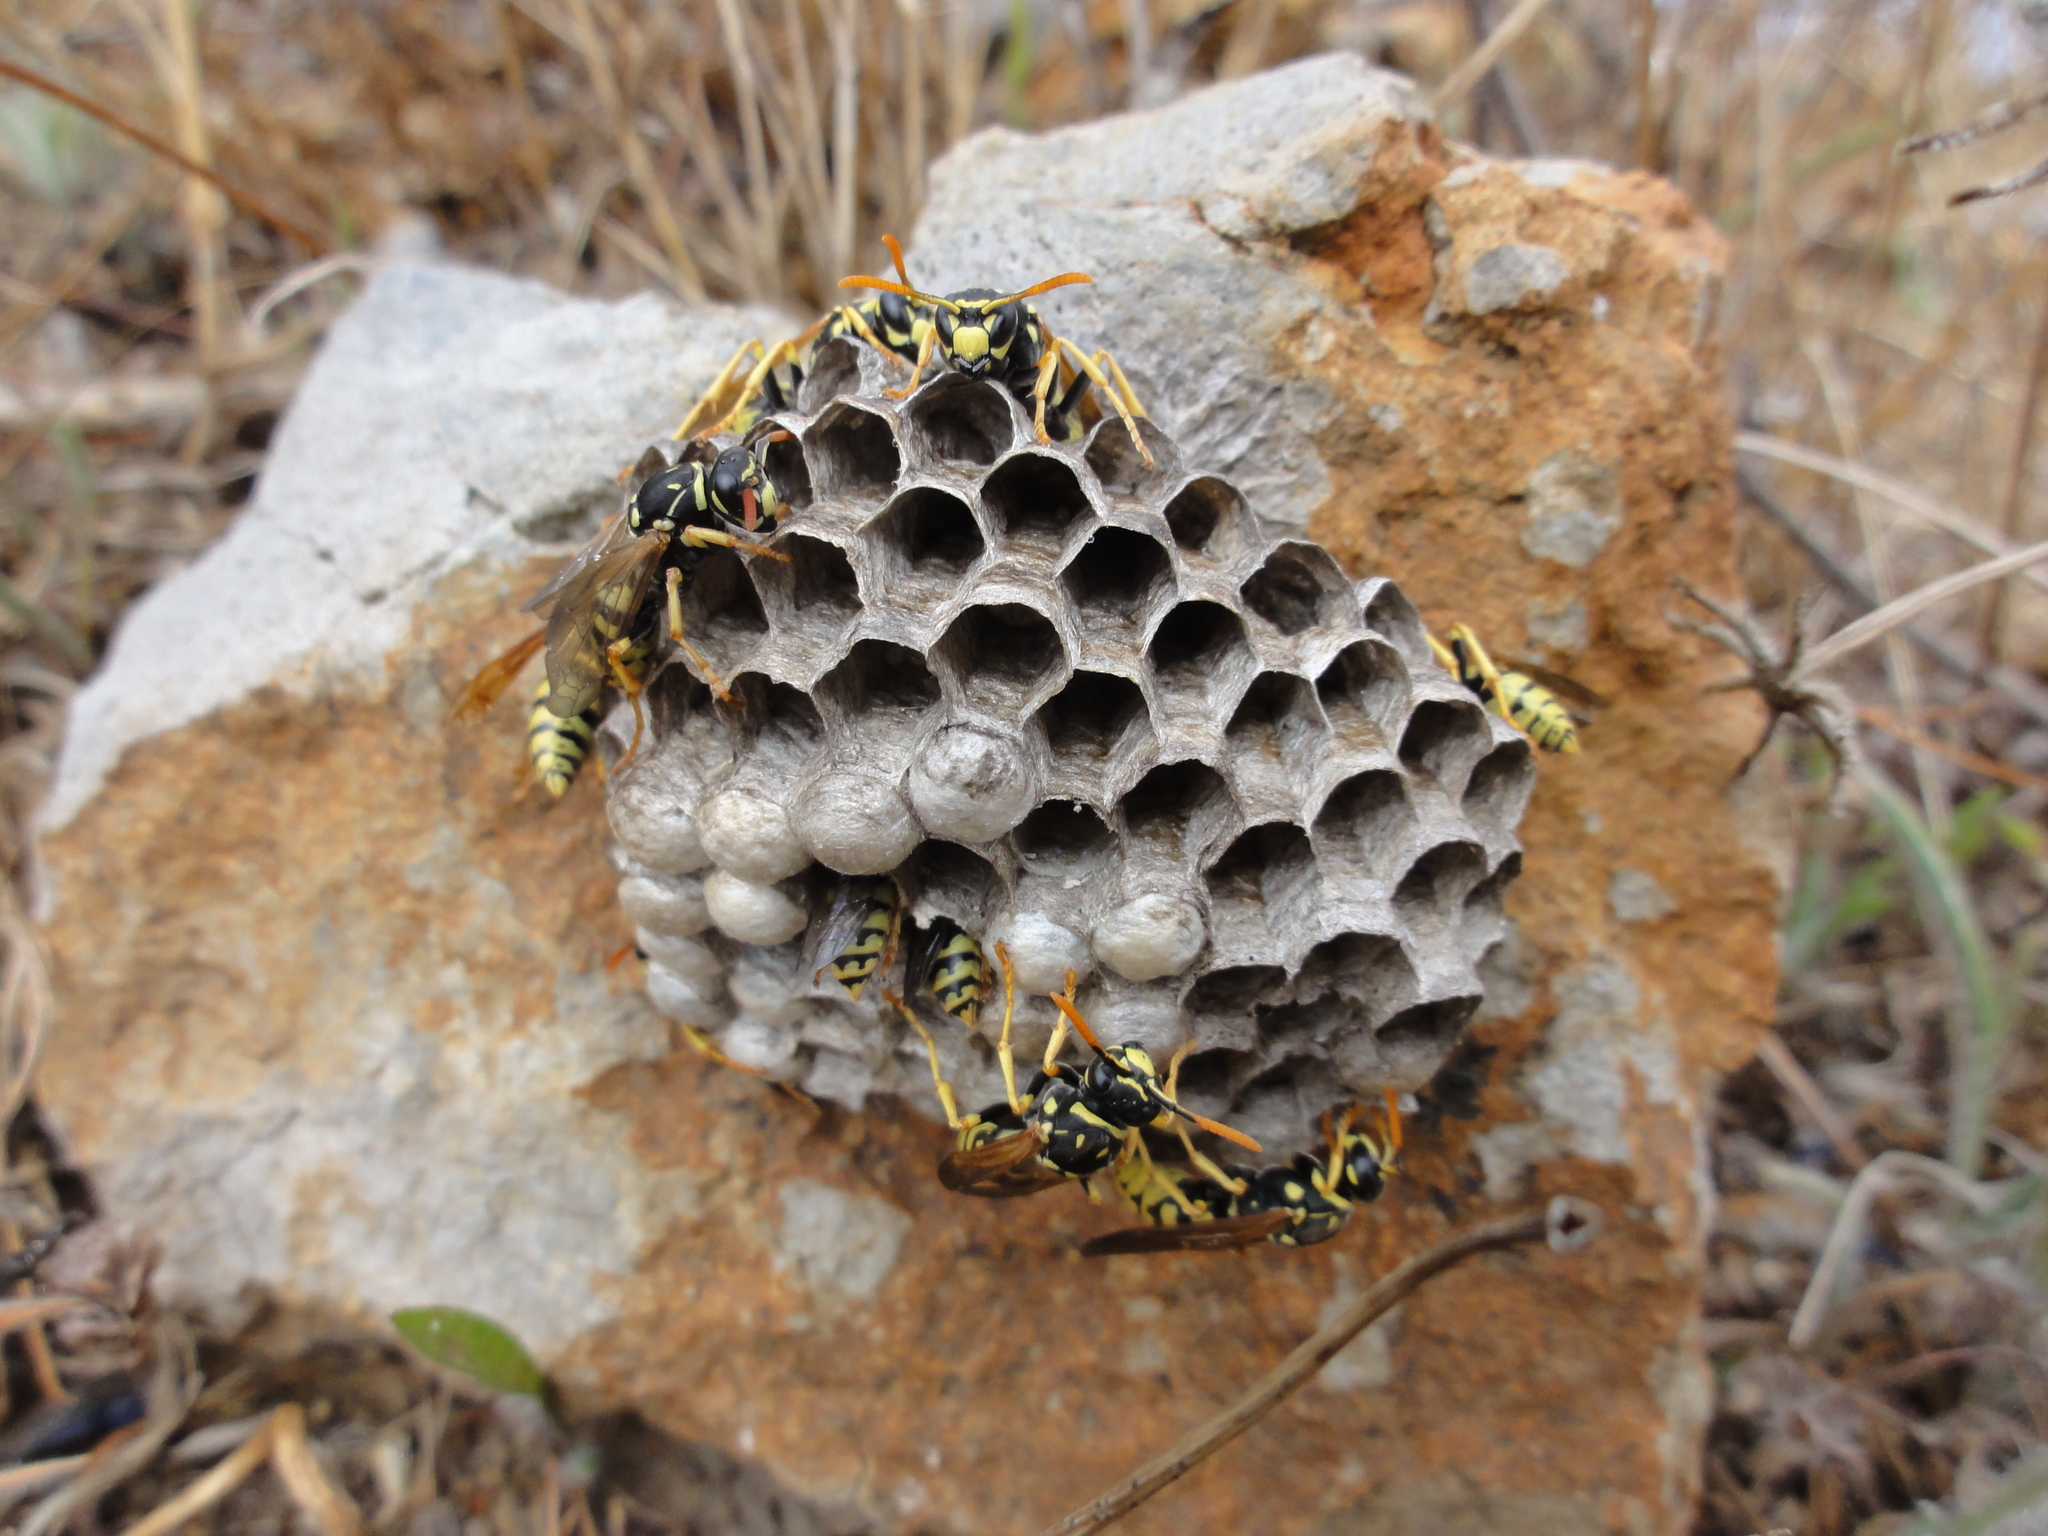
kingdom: Animalia
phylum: Arthropoda
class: Insecta
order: Hymenoptera
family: Eumenidae
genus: Polistes
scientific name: Polistes dominula
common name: Paper wasp
